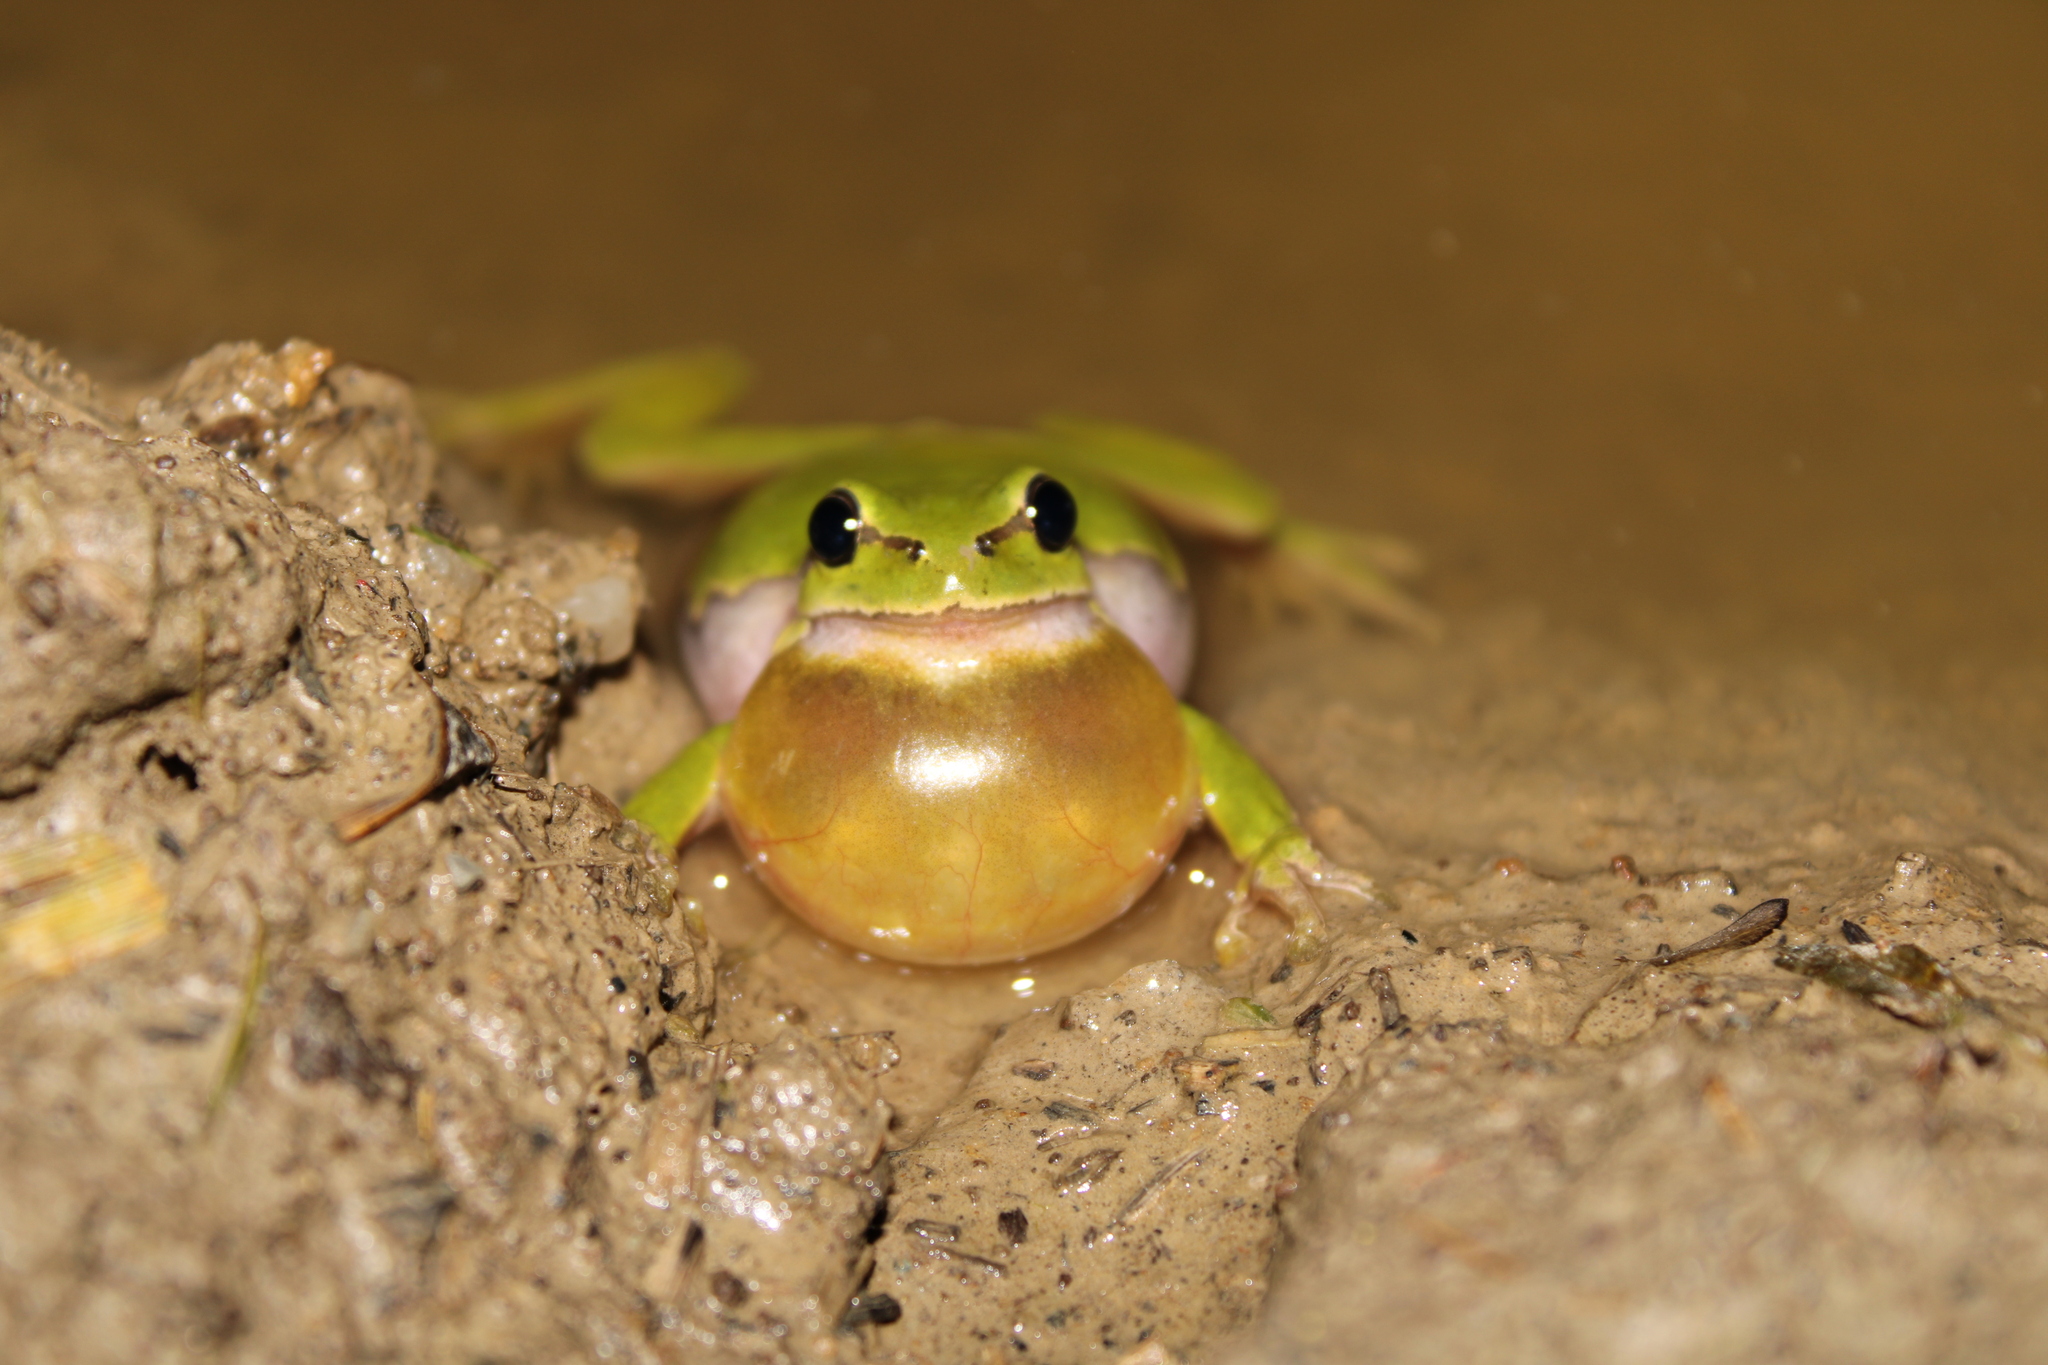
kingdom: Animalia
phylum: Chordata
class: Amphibia
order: Anura
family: Hylidae
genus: Hyla
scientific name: Hyla arborea
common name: Common tree frog
